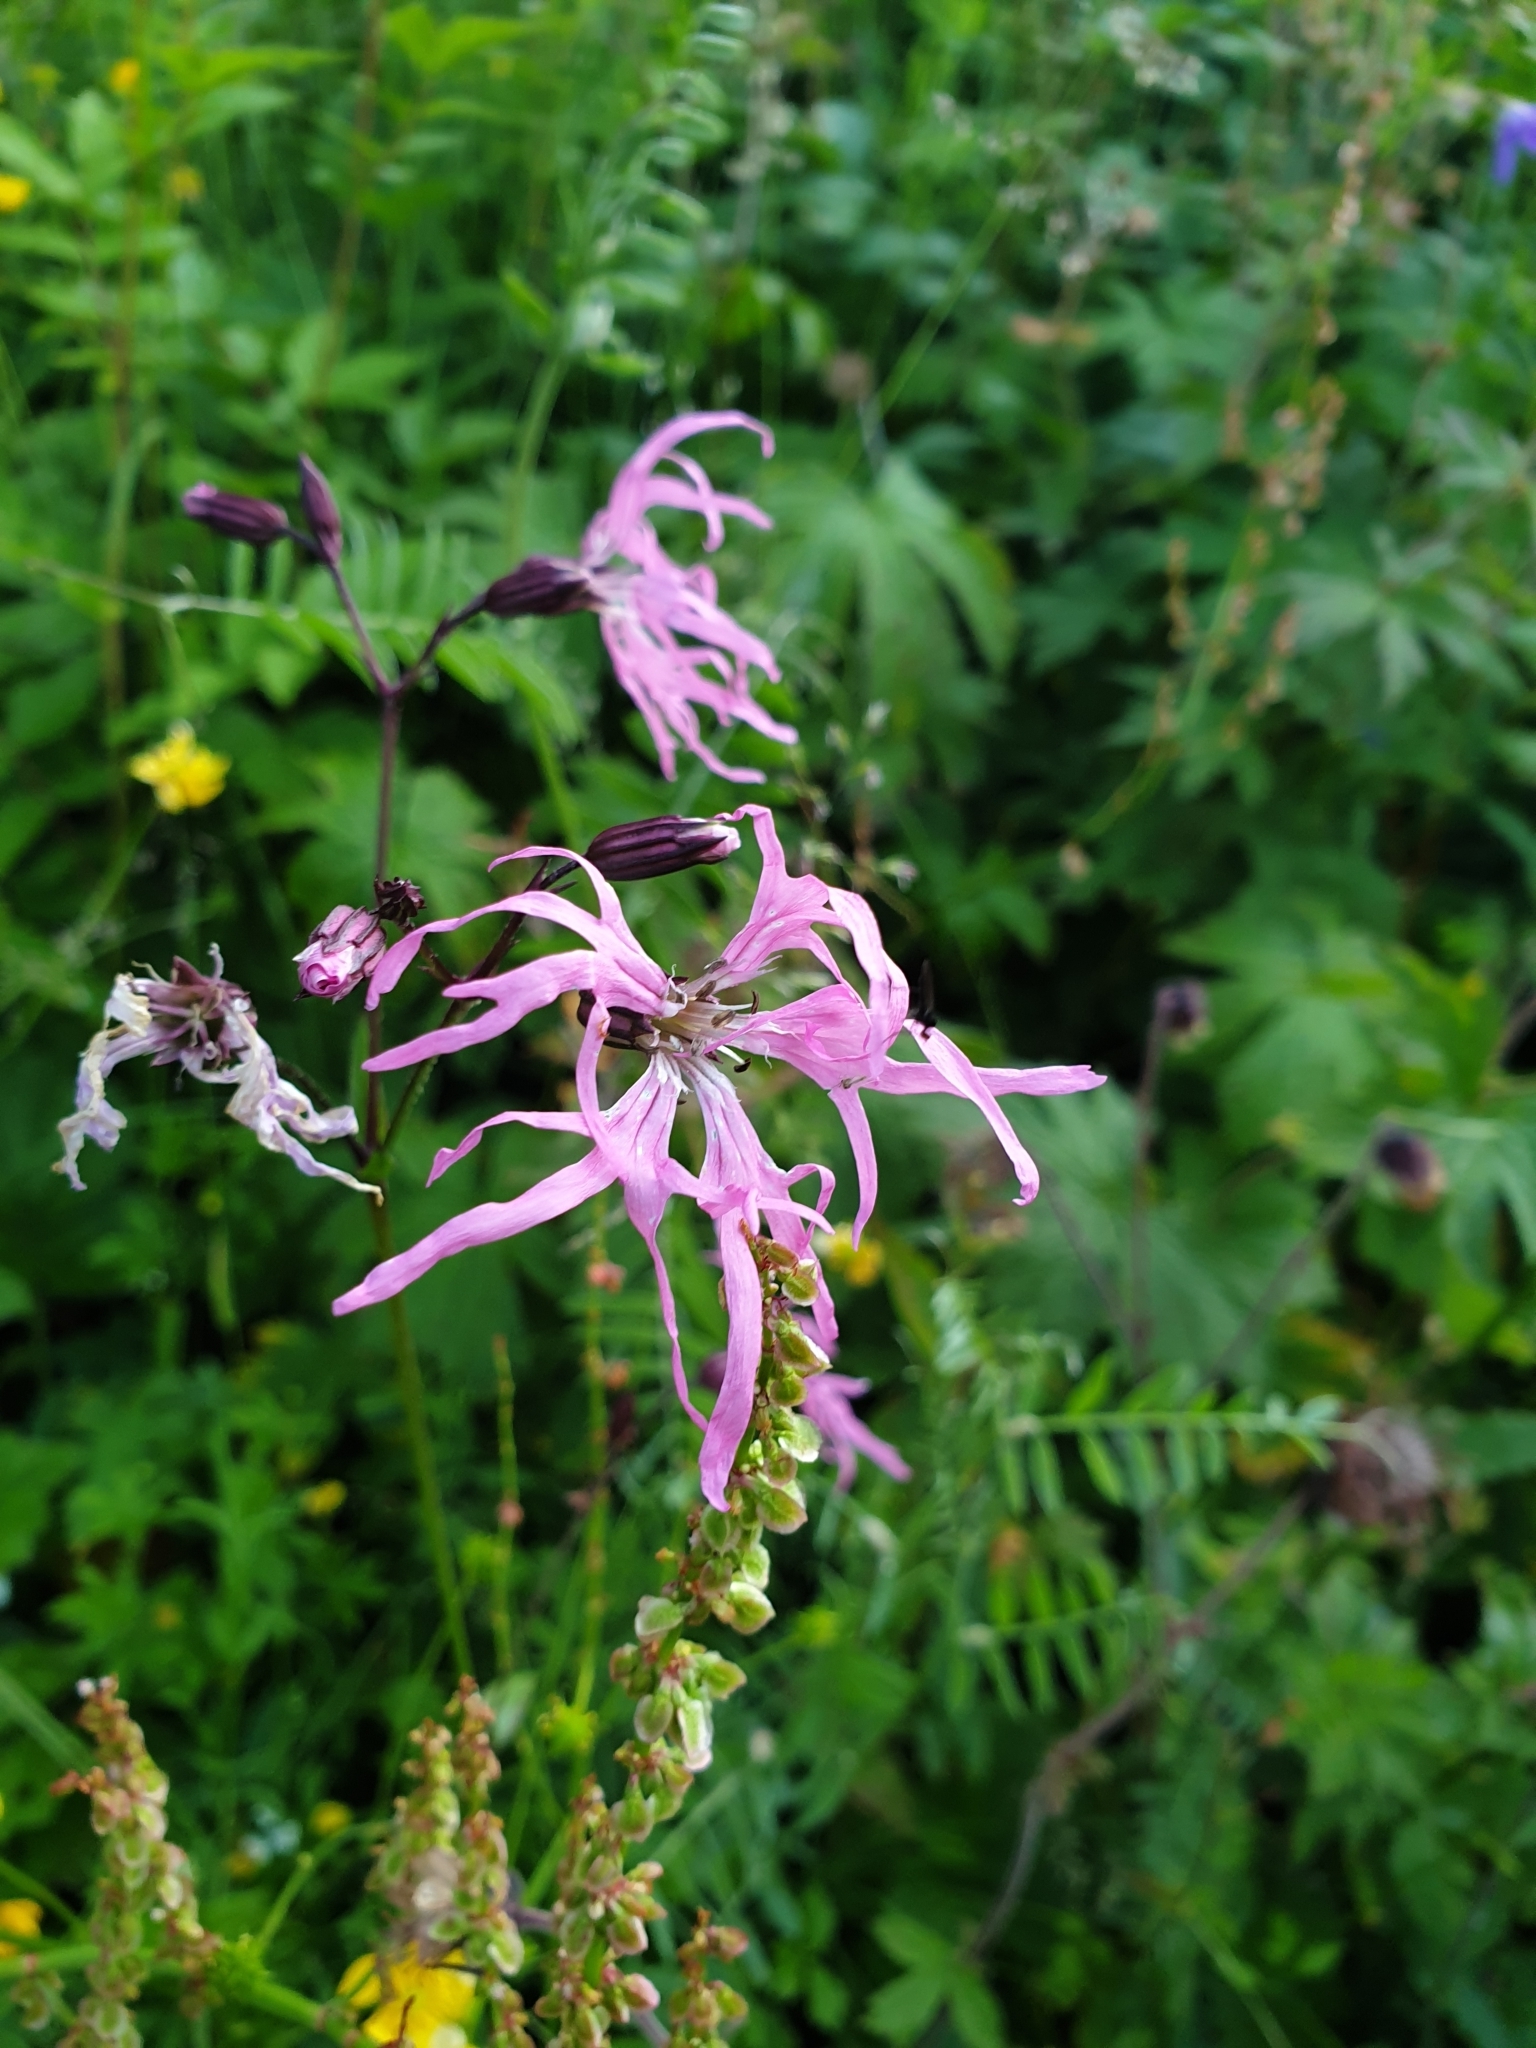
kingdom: Plantae
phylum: Tracheophyta
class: Magnoliopsida
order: Caryophyllales
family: Caryophyllaceae
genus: Silene
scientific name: Silene flos-cuculi
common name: Ragged-robin
